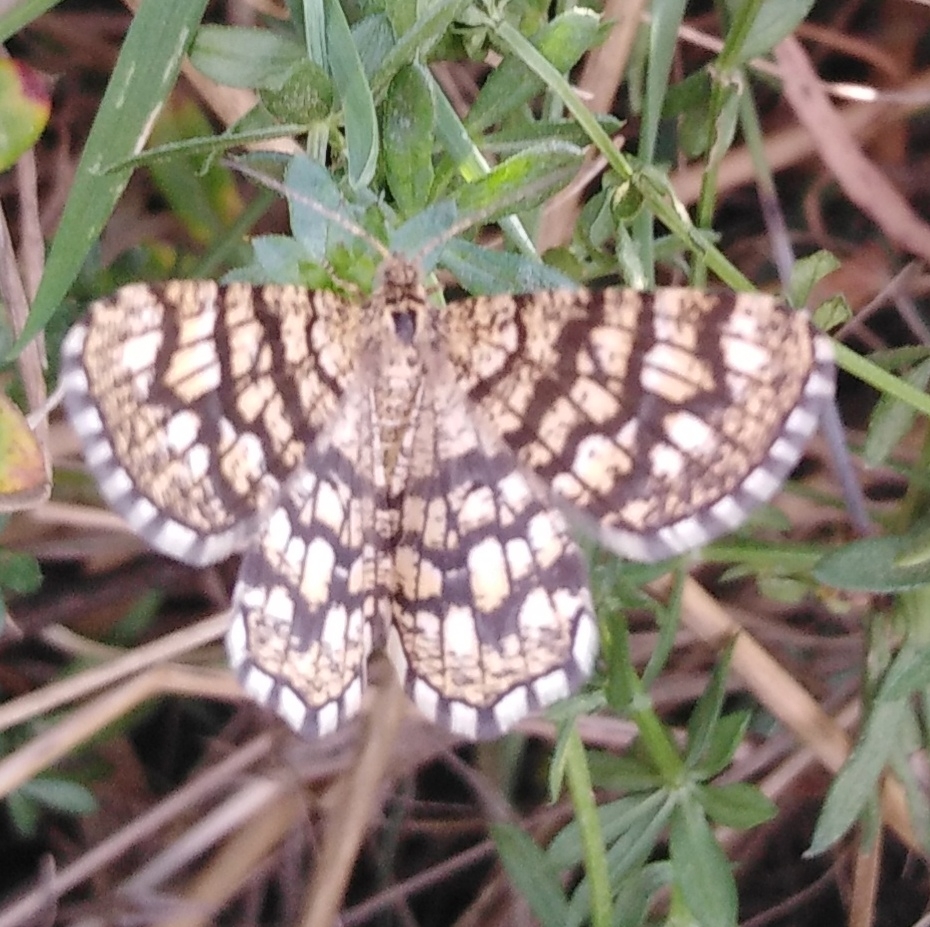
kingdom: Animalia
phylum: Arthropoda
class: Insecta
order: Lepidoptera
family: Geometridae
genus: Chiasmia
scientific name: Chiasmia clathrata
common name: Latticed heath
